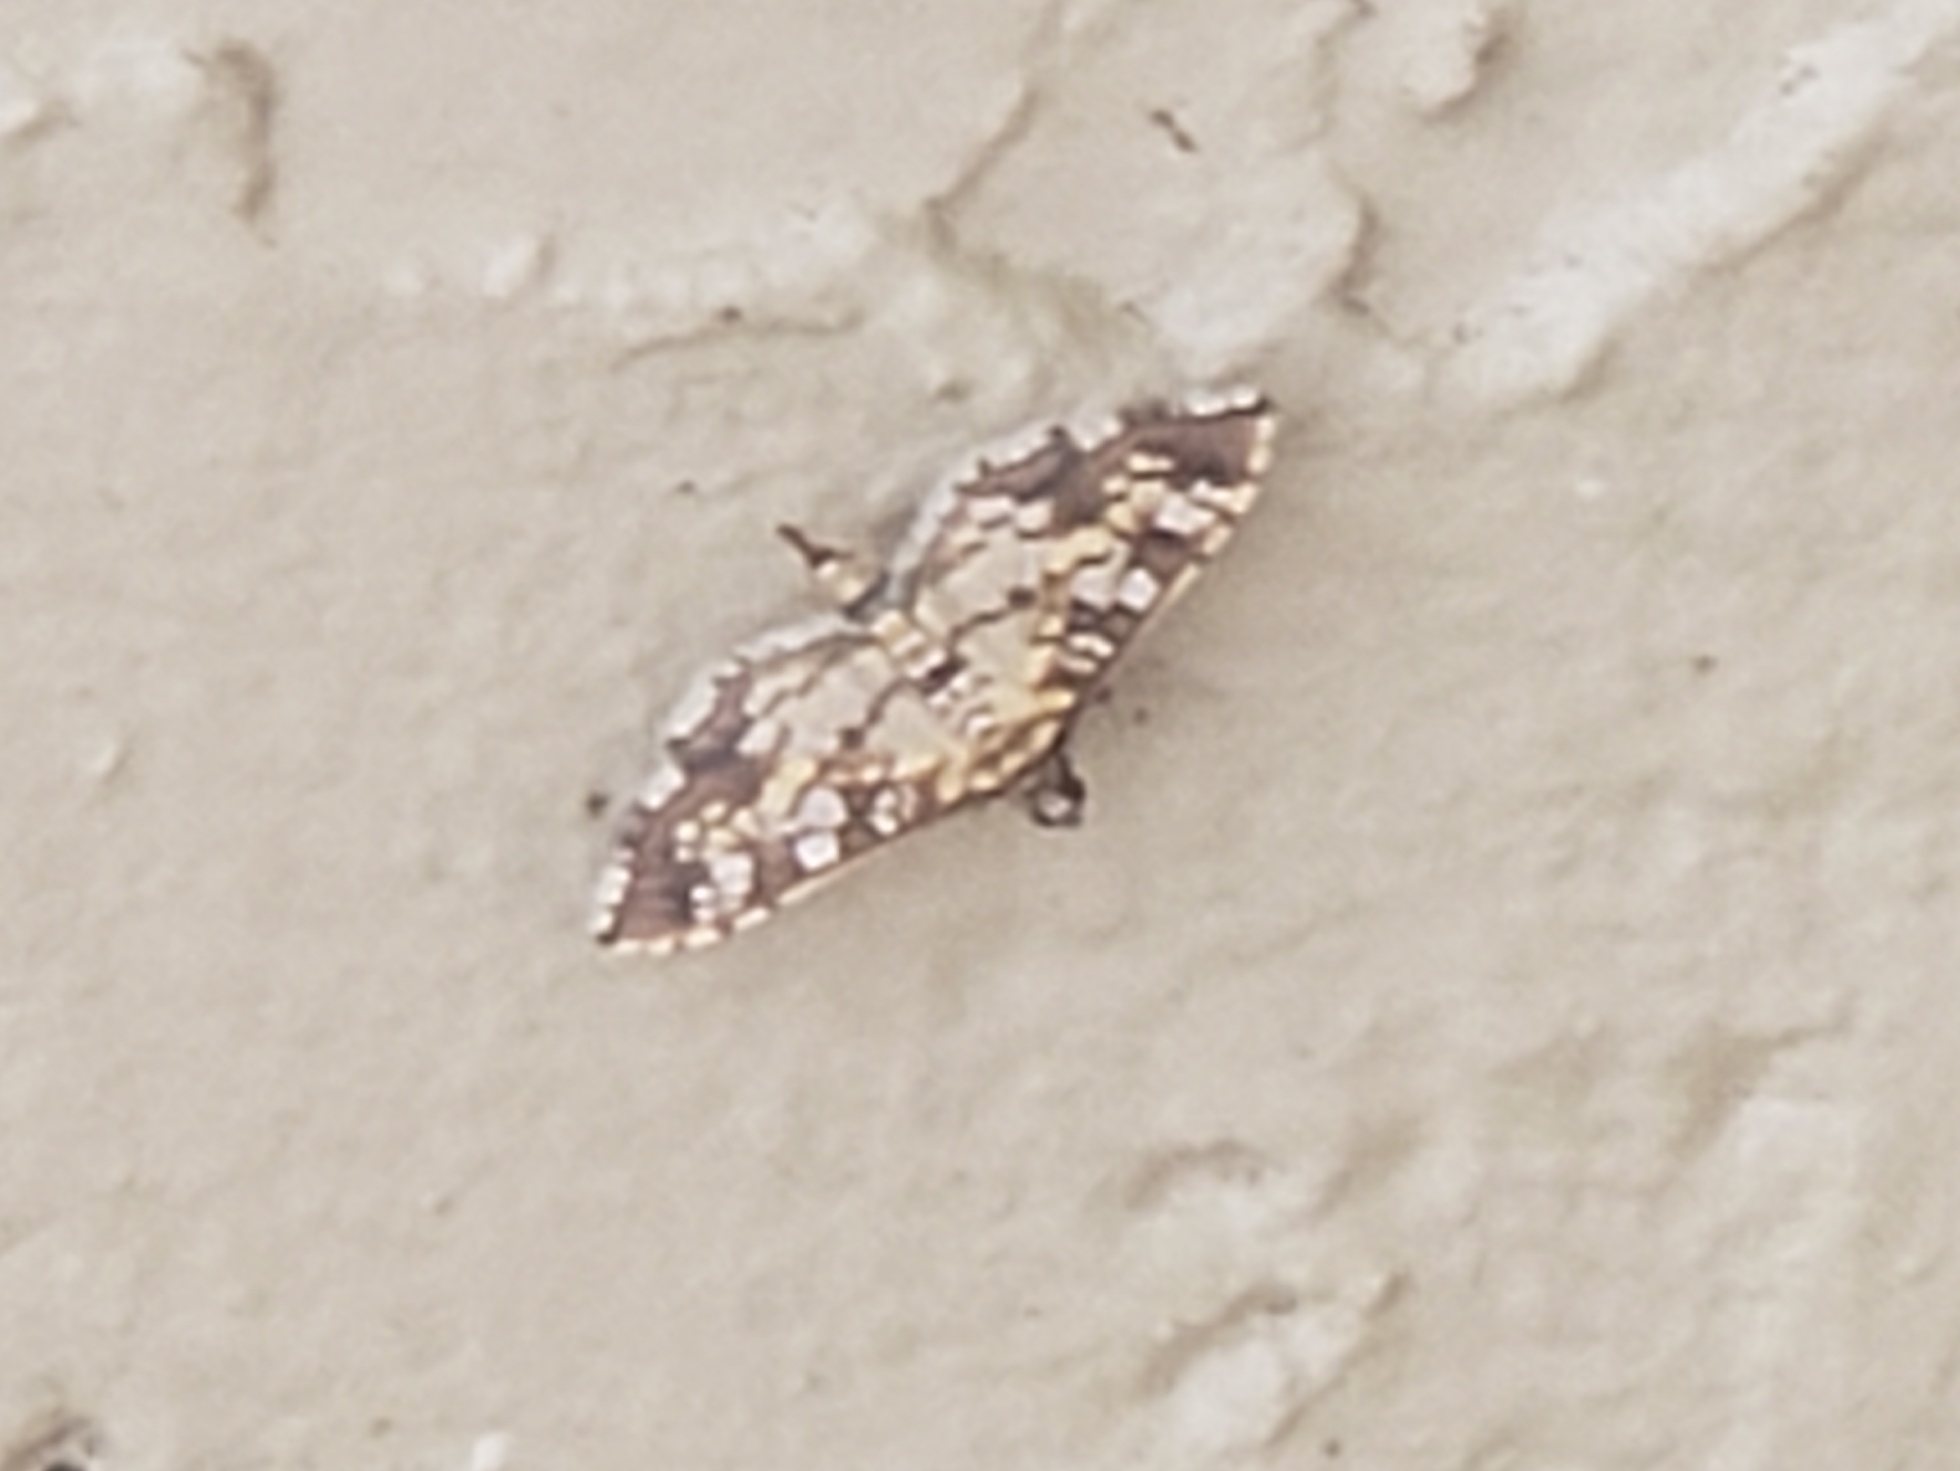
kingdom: Animalia
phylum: Arthropoda
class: Insecta
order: Lepidoptera
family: Crambidae
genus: Samea
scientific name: Samea ecclesialis
